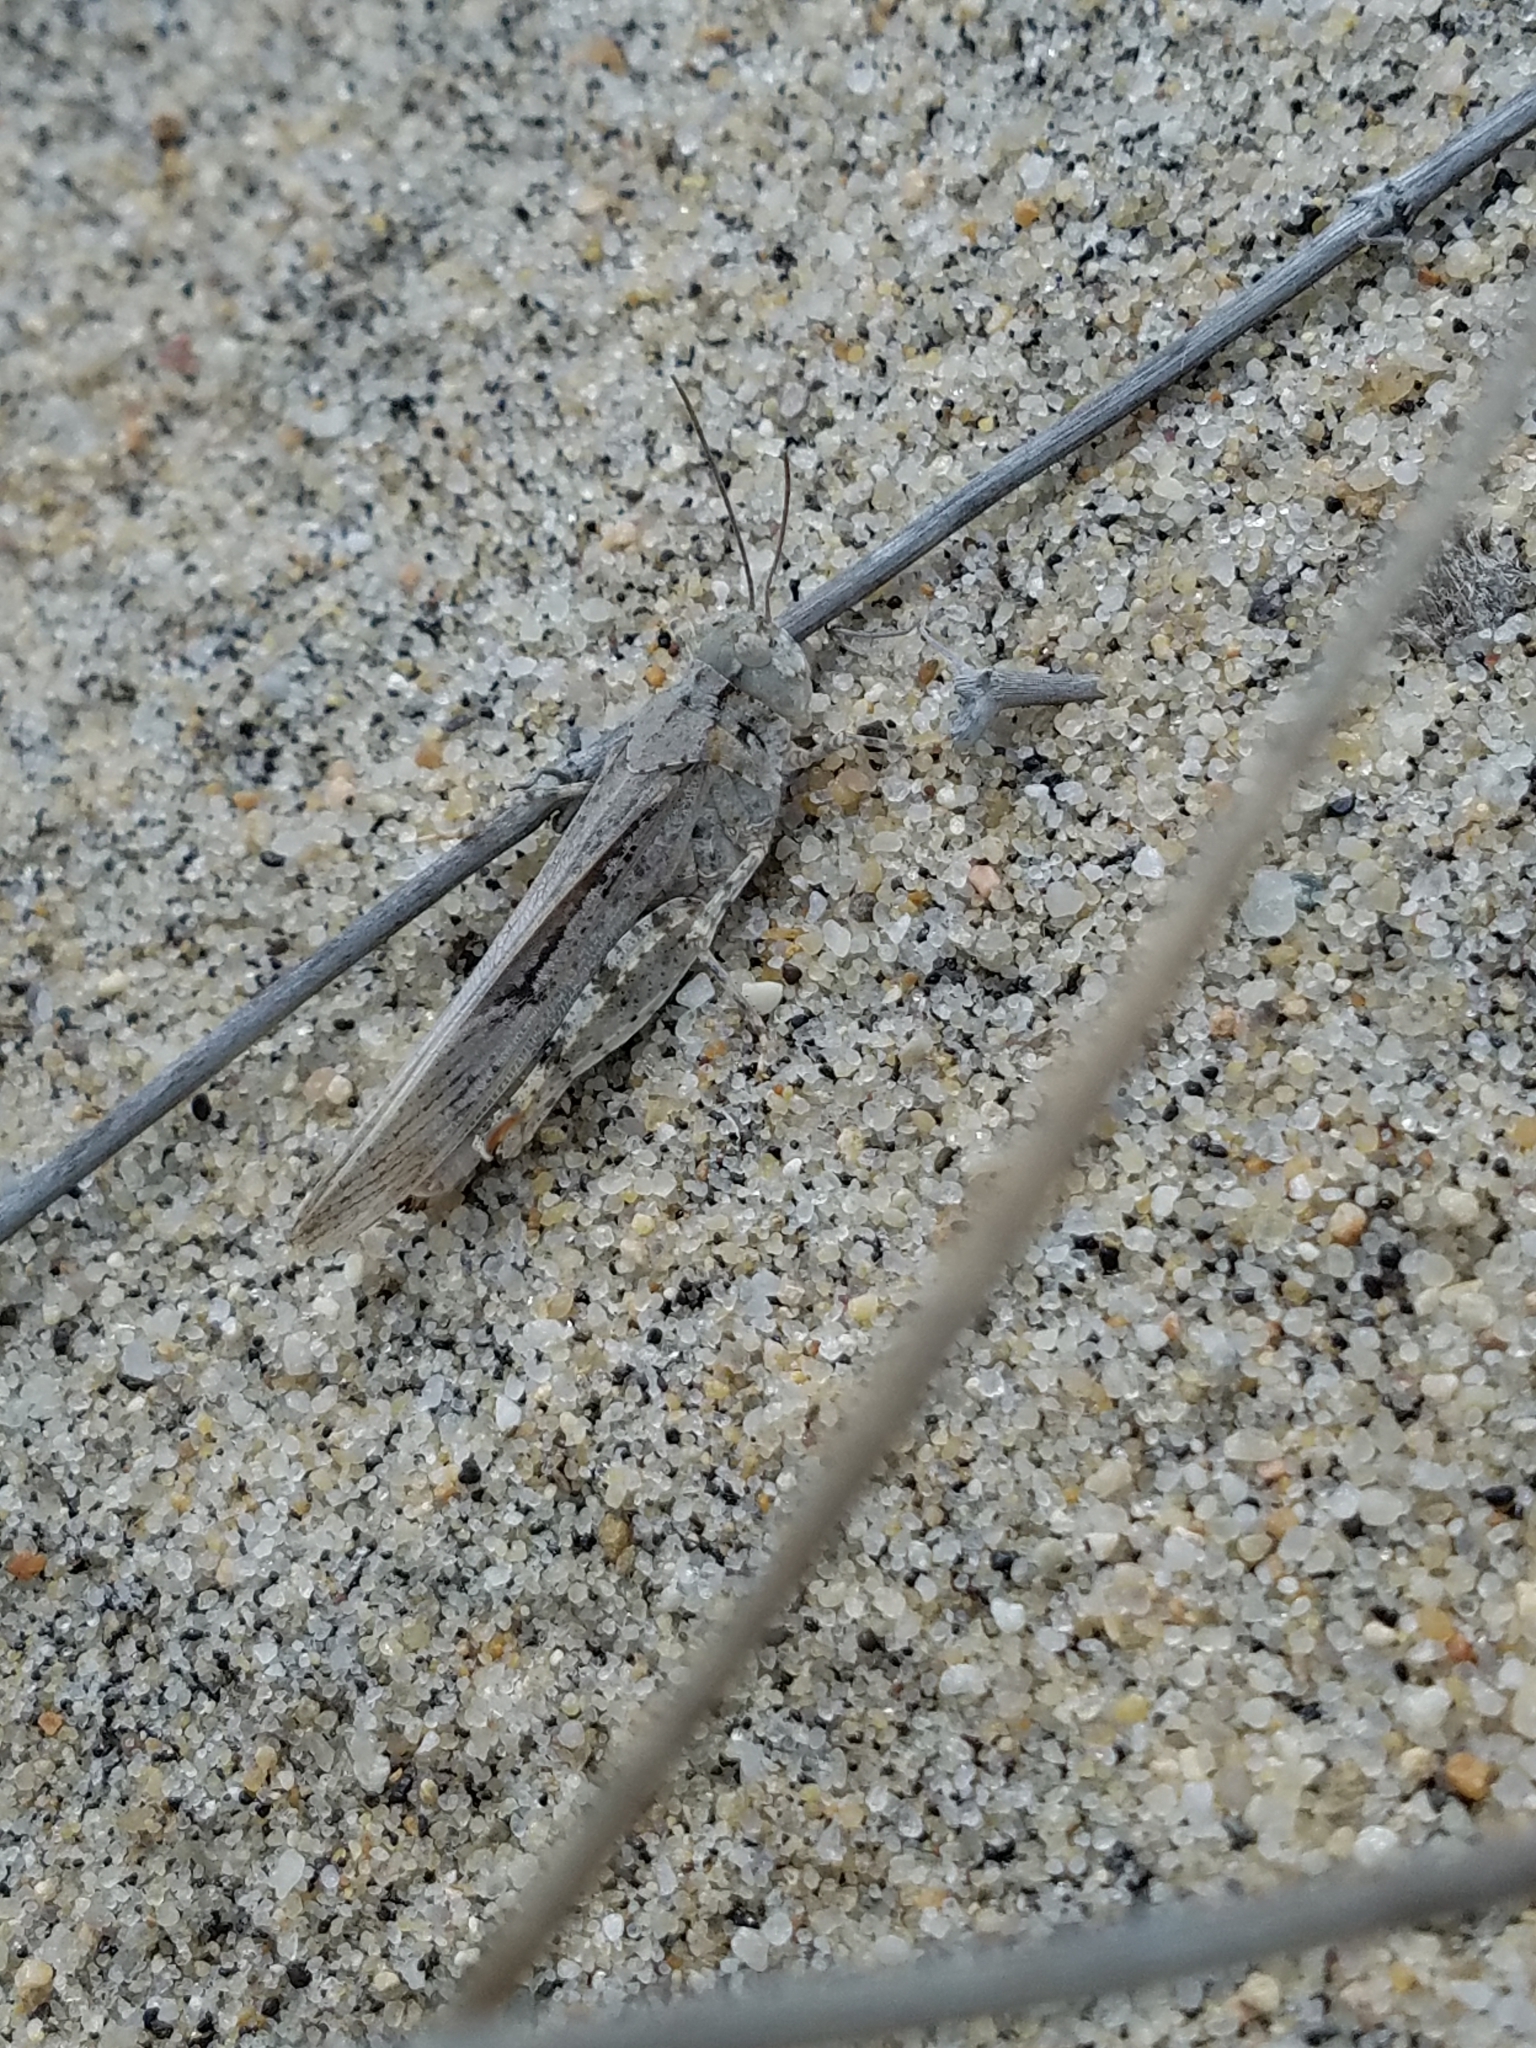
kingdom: Animalia
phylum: Arthropoda
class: Insecta
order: Orthoptera
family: Acrididae
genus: Trimerotropis
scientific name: Trimerotropis maritima
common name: Seaside locust
